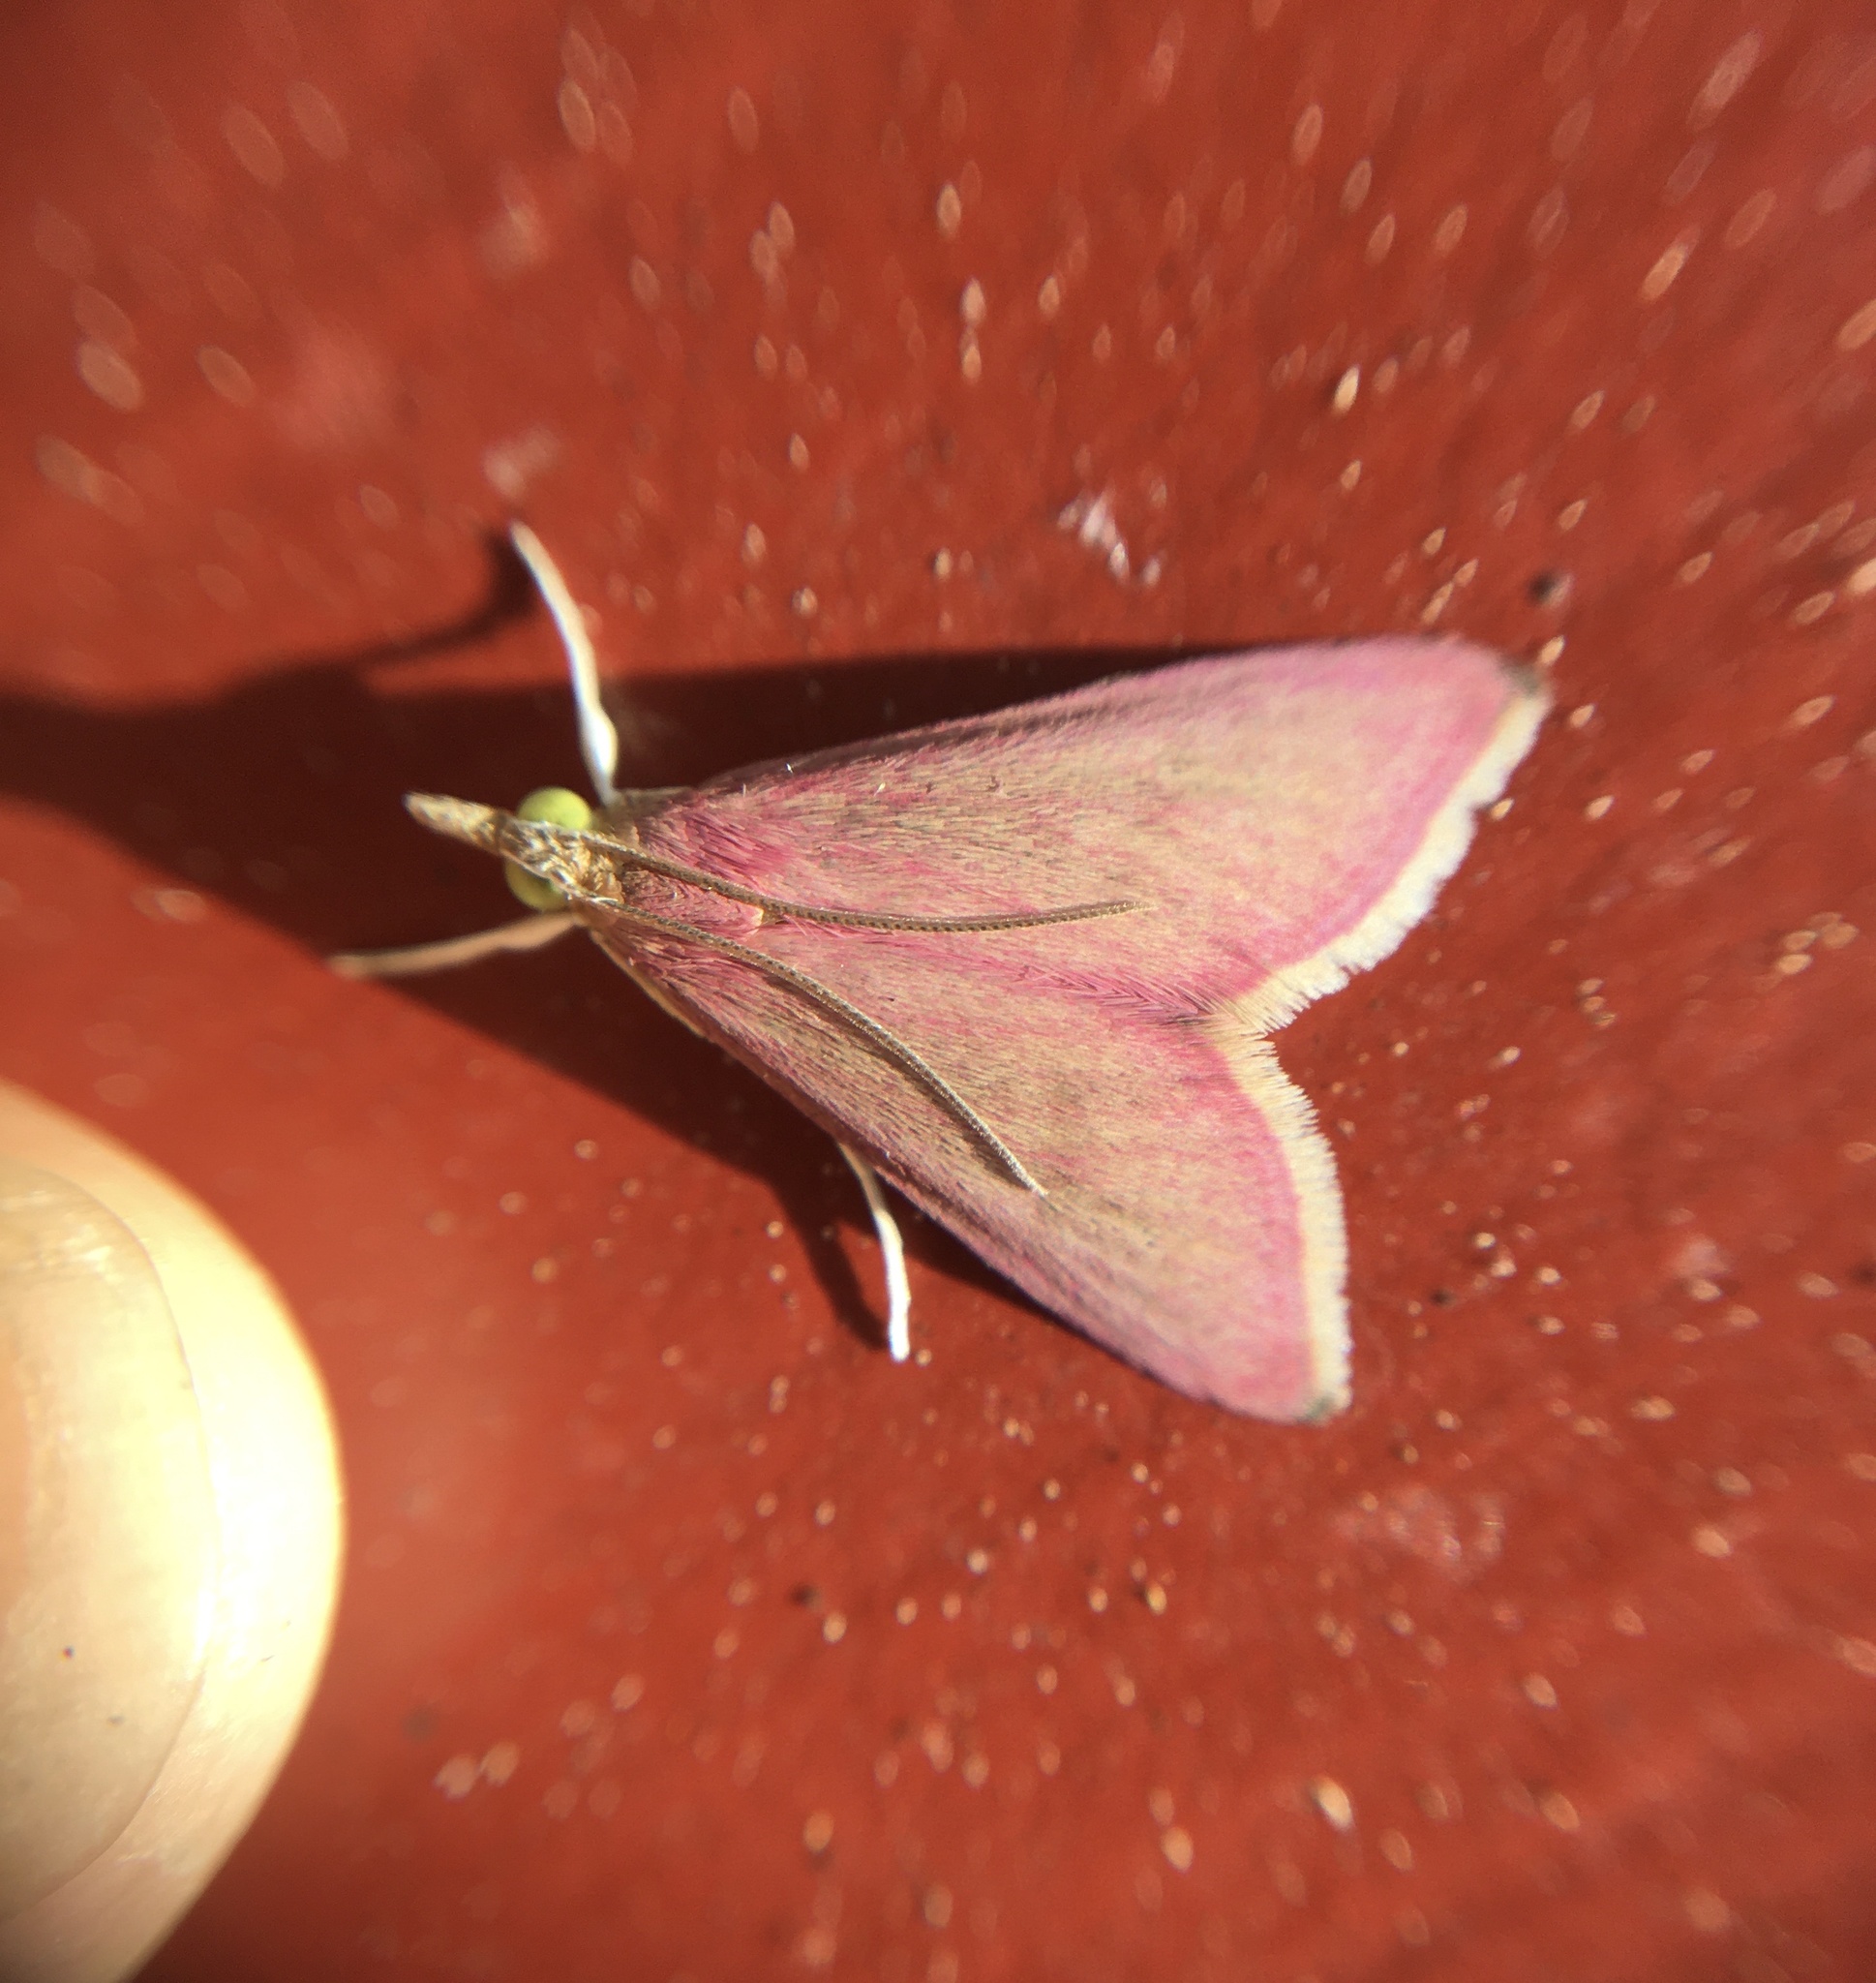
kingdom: Animalia
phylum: Arthropoda
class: Insecta
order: Lepidoptera
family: Crambidae
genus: Pyrausta
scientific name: Pyrausta inornatalis
